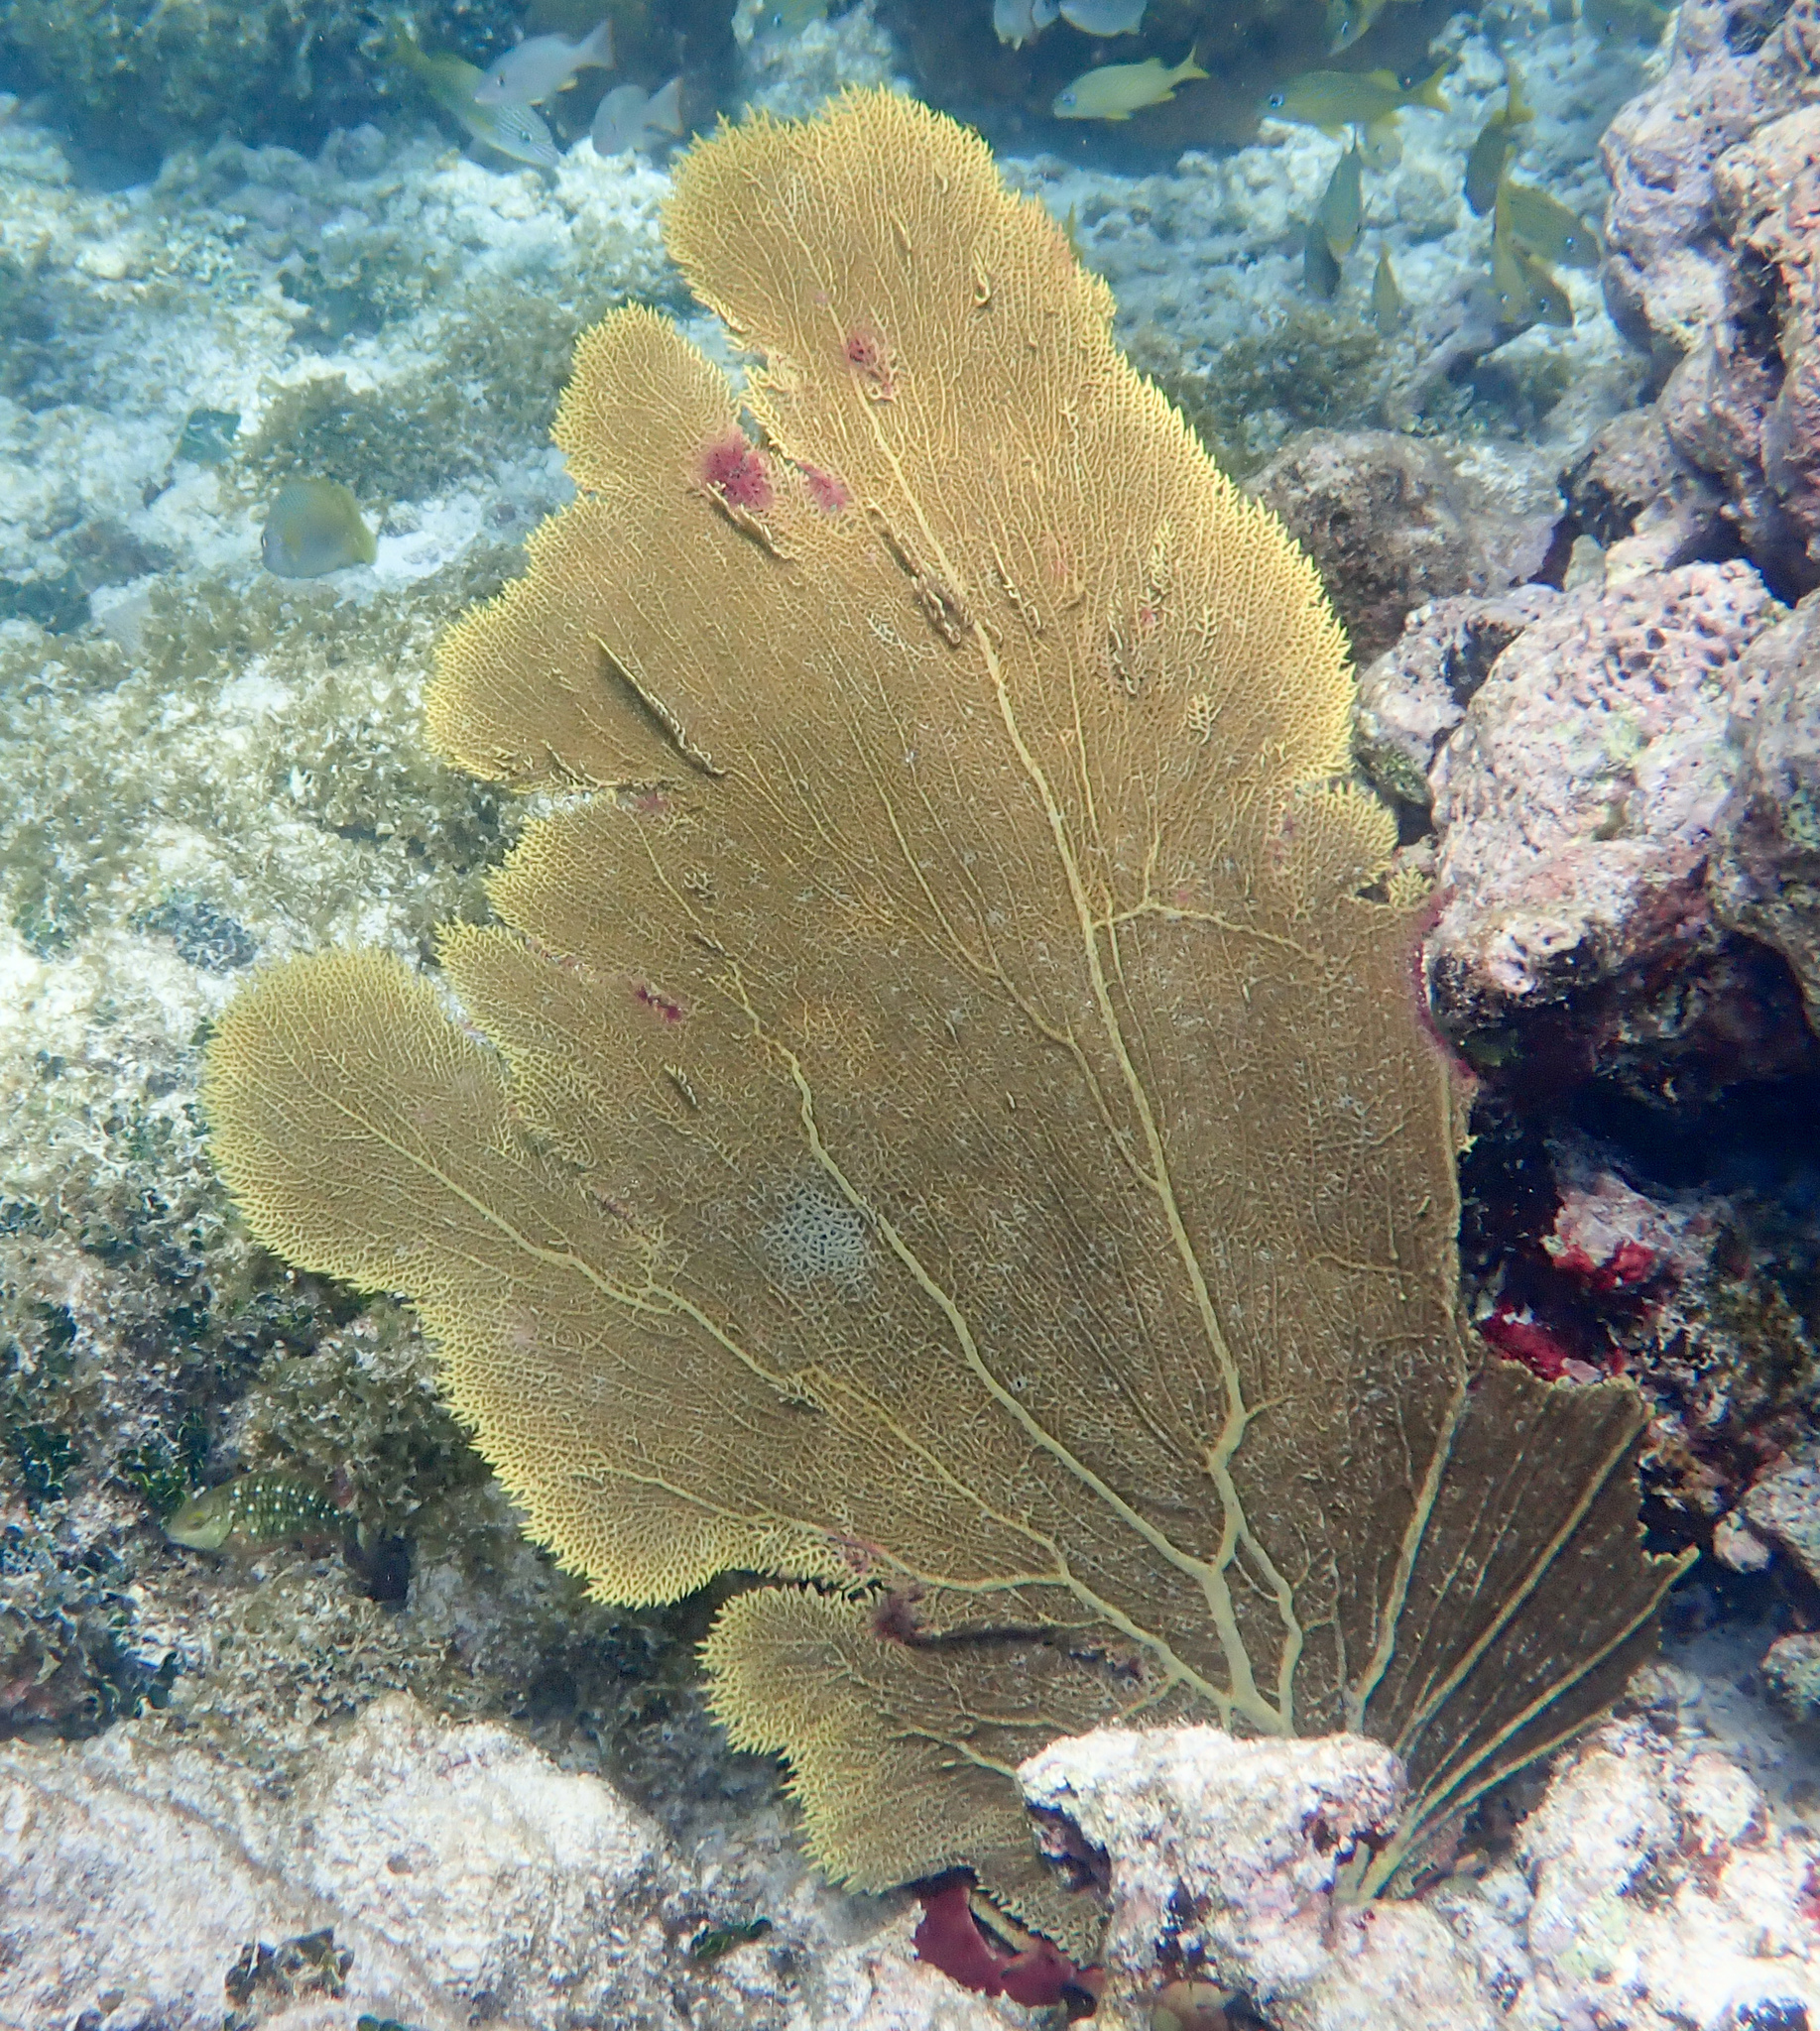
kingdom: Animalia
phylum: Cnidaria
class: Anthozoa
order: Malacalcyonacea
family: Gorgoniidae
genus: Gorgonia
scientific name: Gorgonia ventalina
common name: Common sea fan
